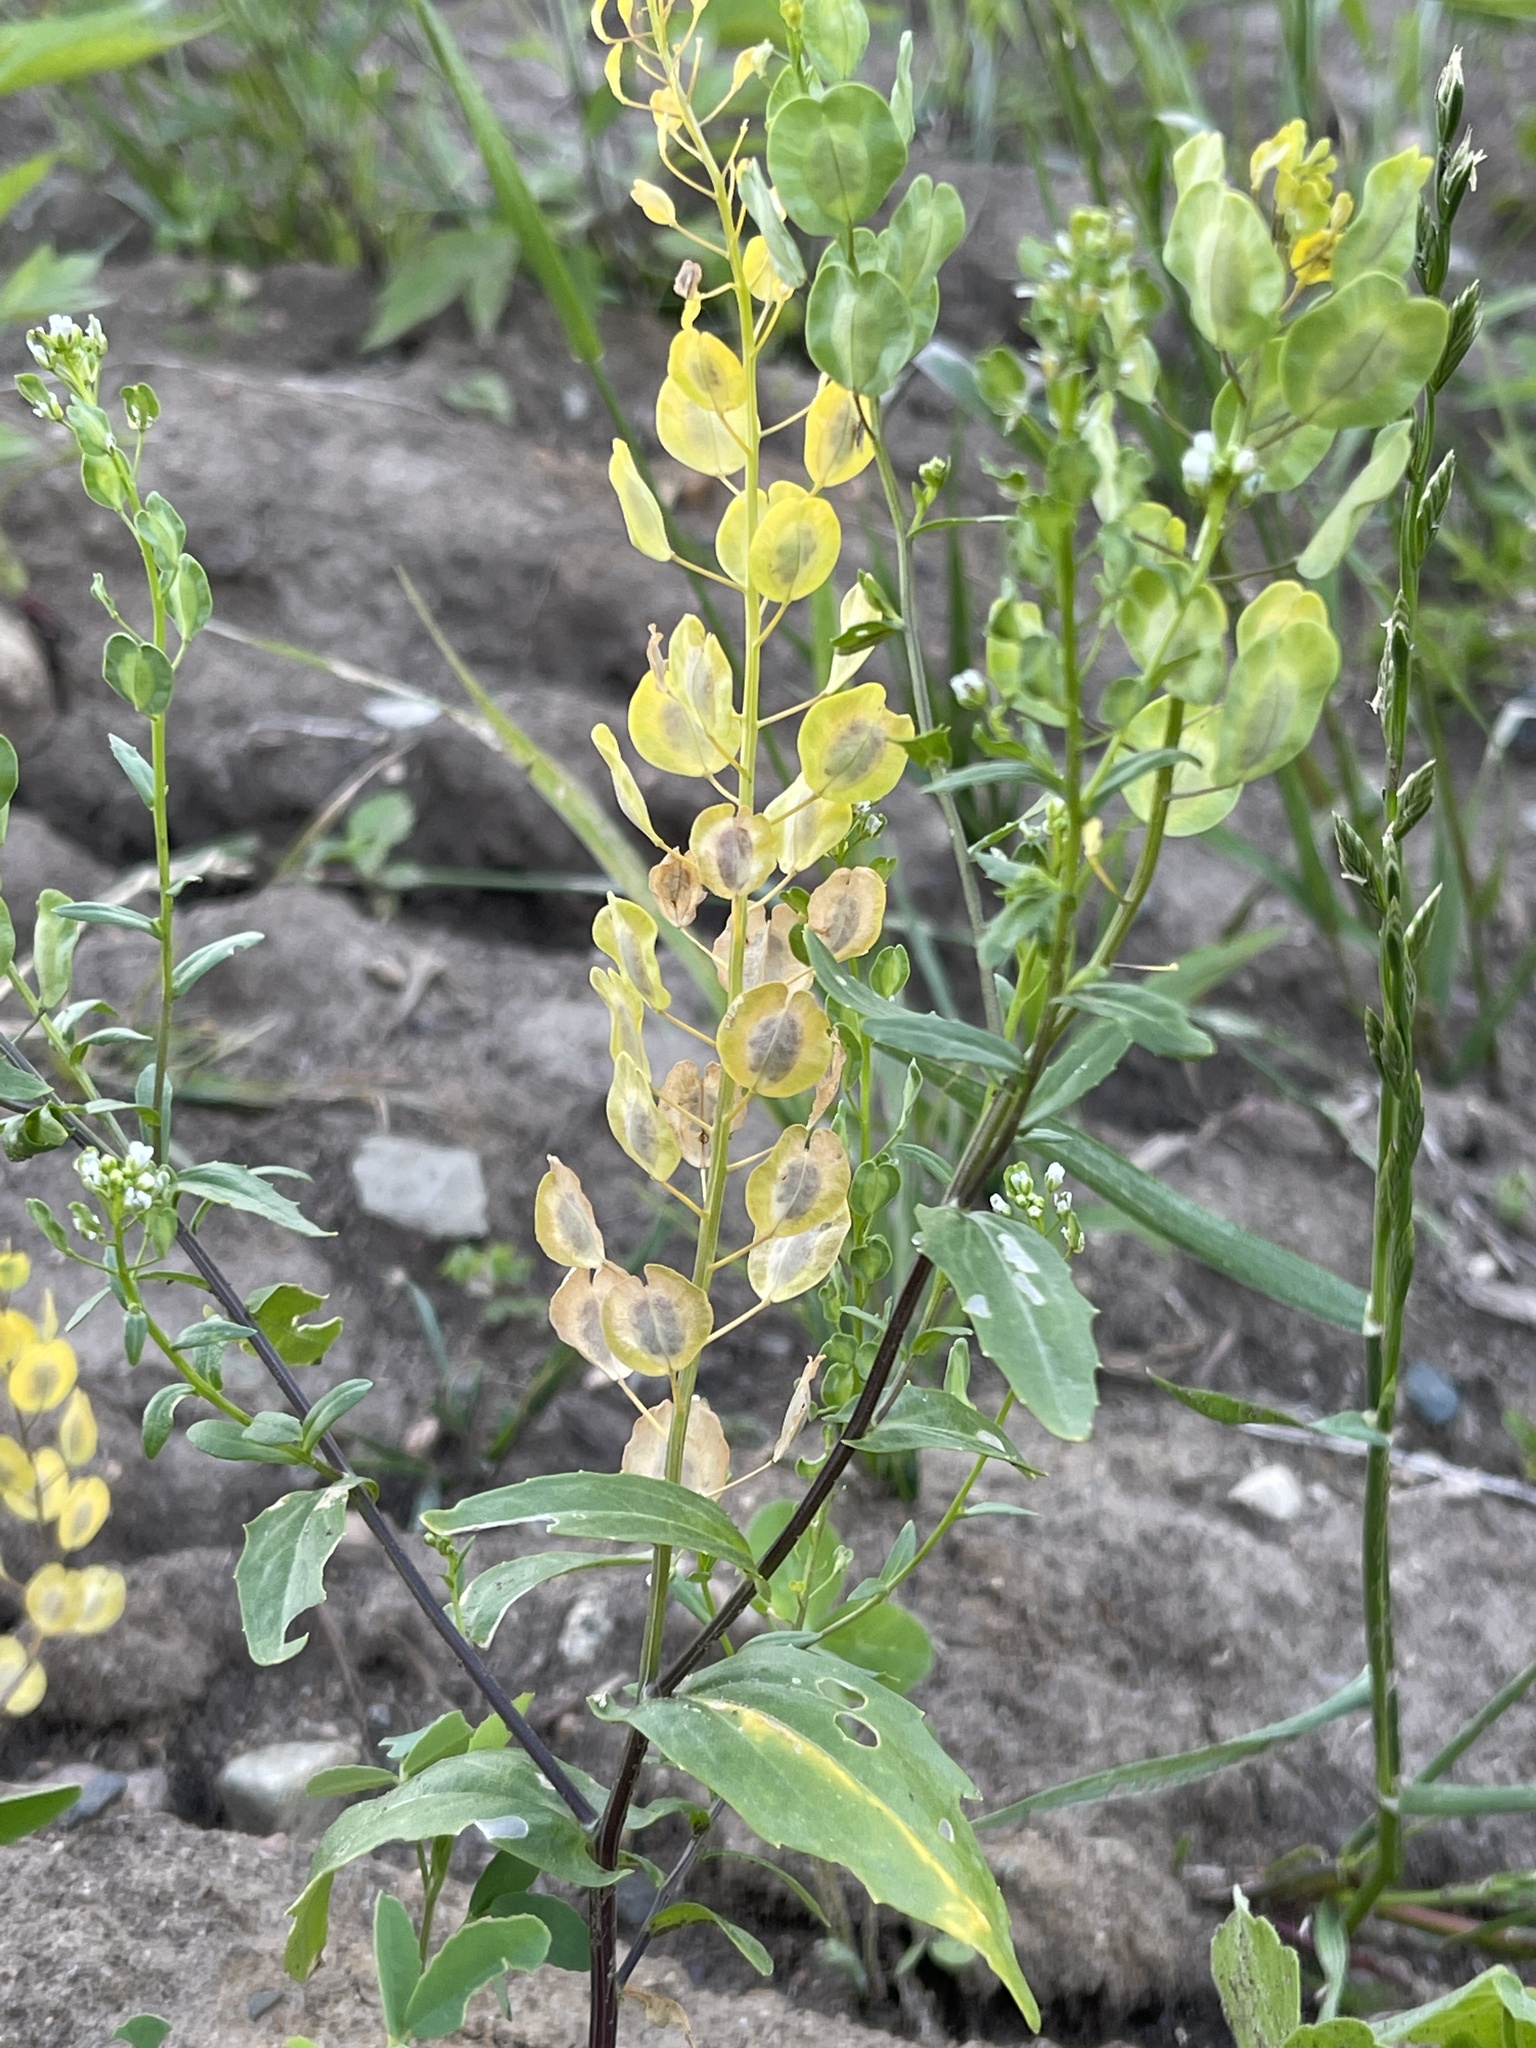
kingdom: Plantae
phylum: Tracheophyta
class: Magnoliopsida
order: Brassicales
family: Brassicaceae
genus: Thlaspi
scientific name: Thlaspi arvense
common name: Field pennycress
